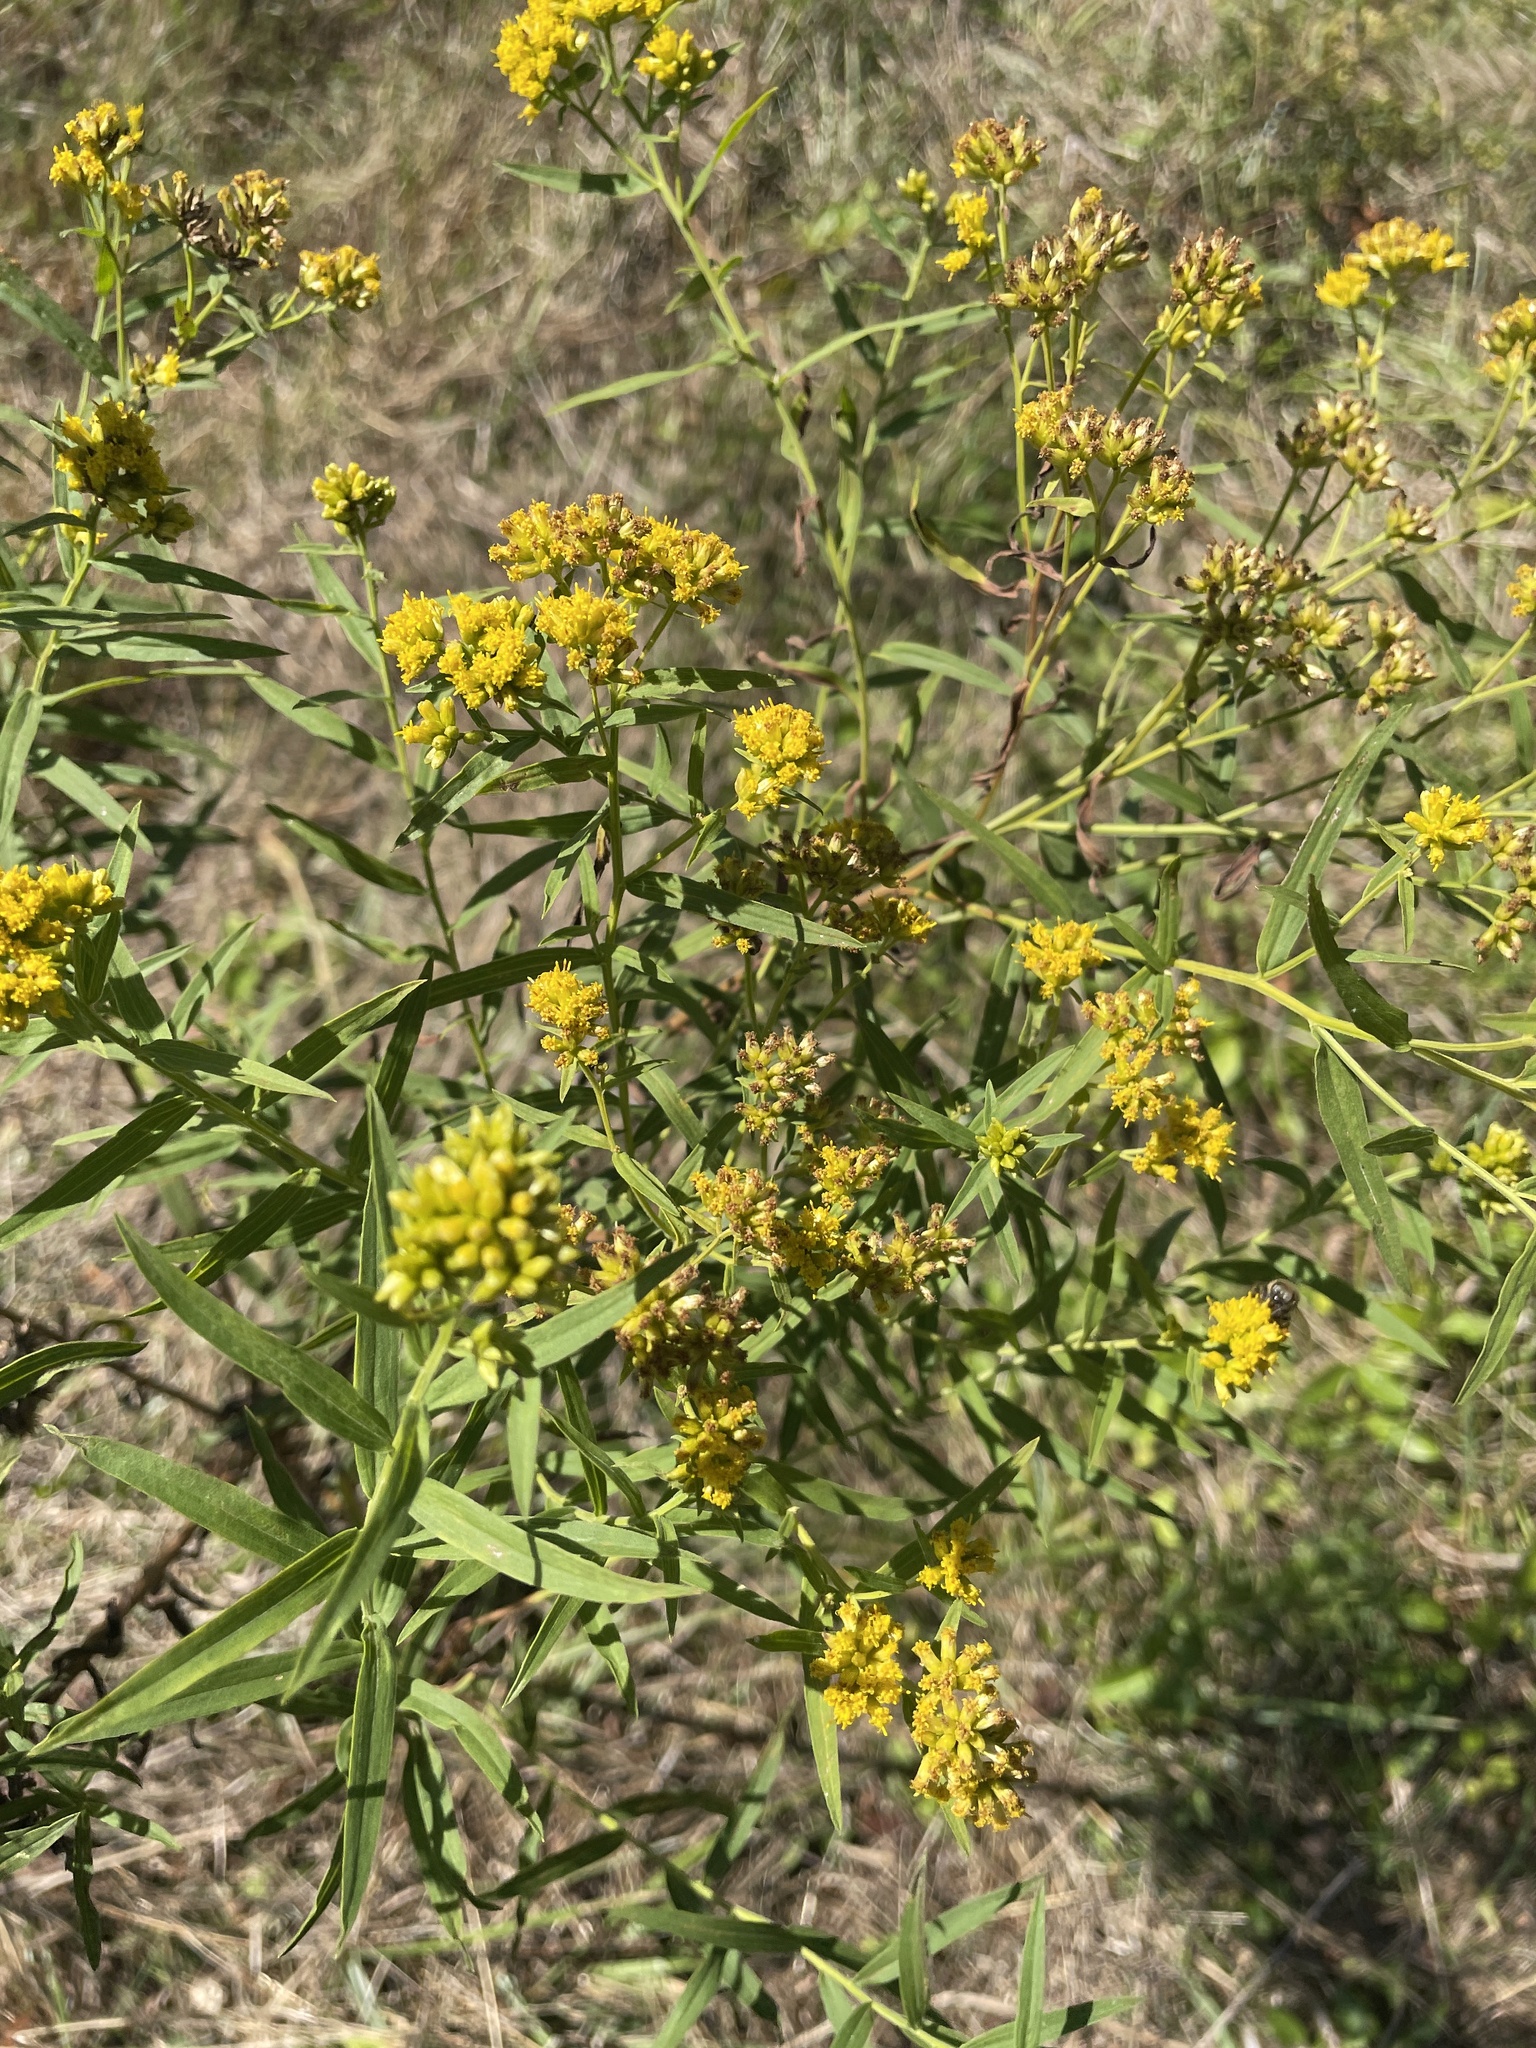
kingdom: Plantae
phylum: Tracheophyta
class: Magnoliopsida
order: Asterales
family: Asteraceae
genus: Euthamia
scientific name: Euthamia graminifolia
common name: Common goldentop
